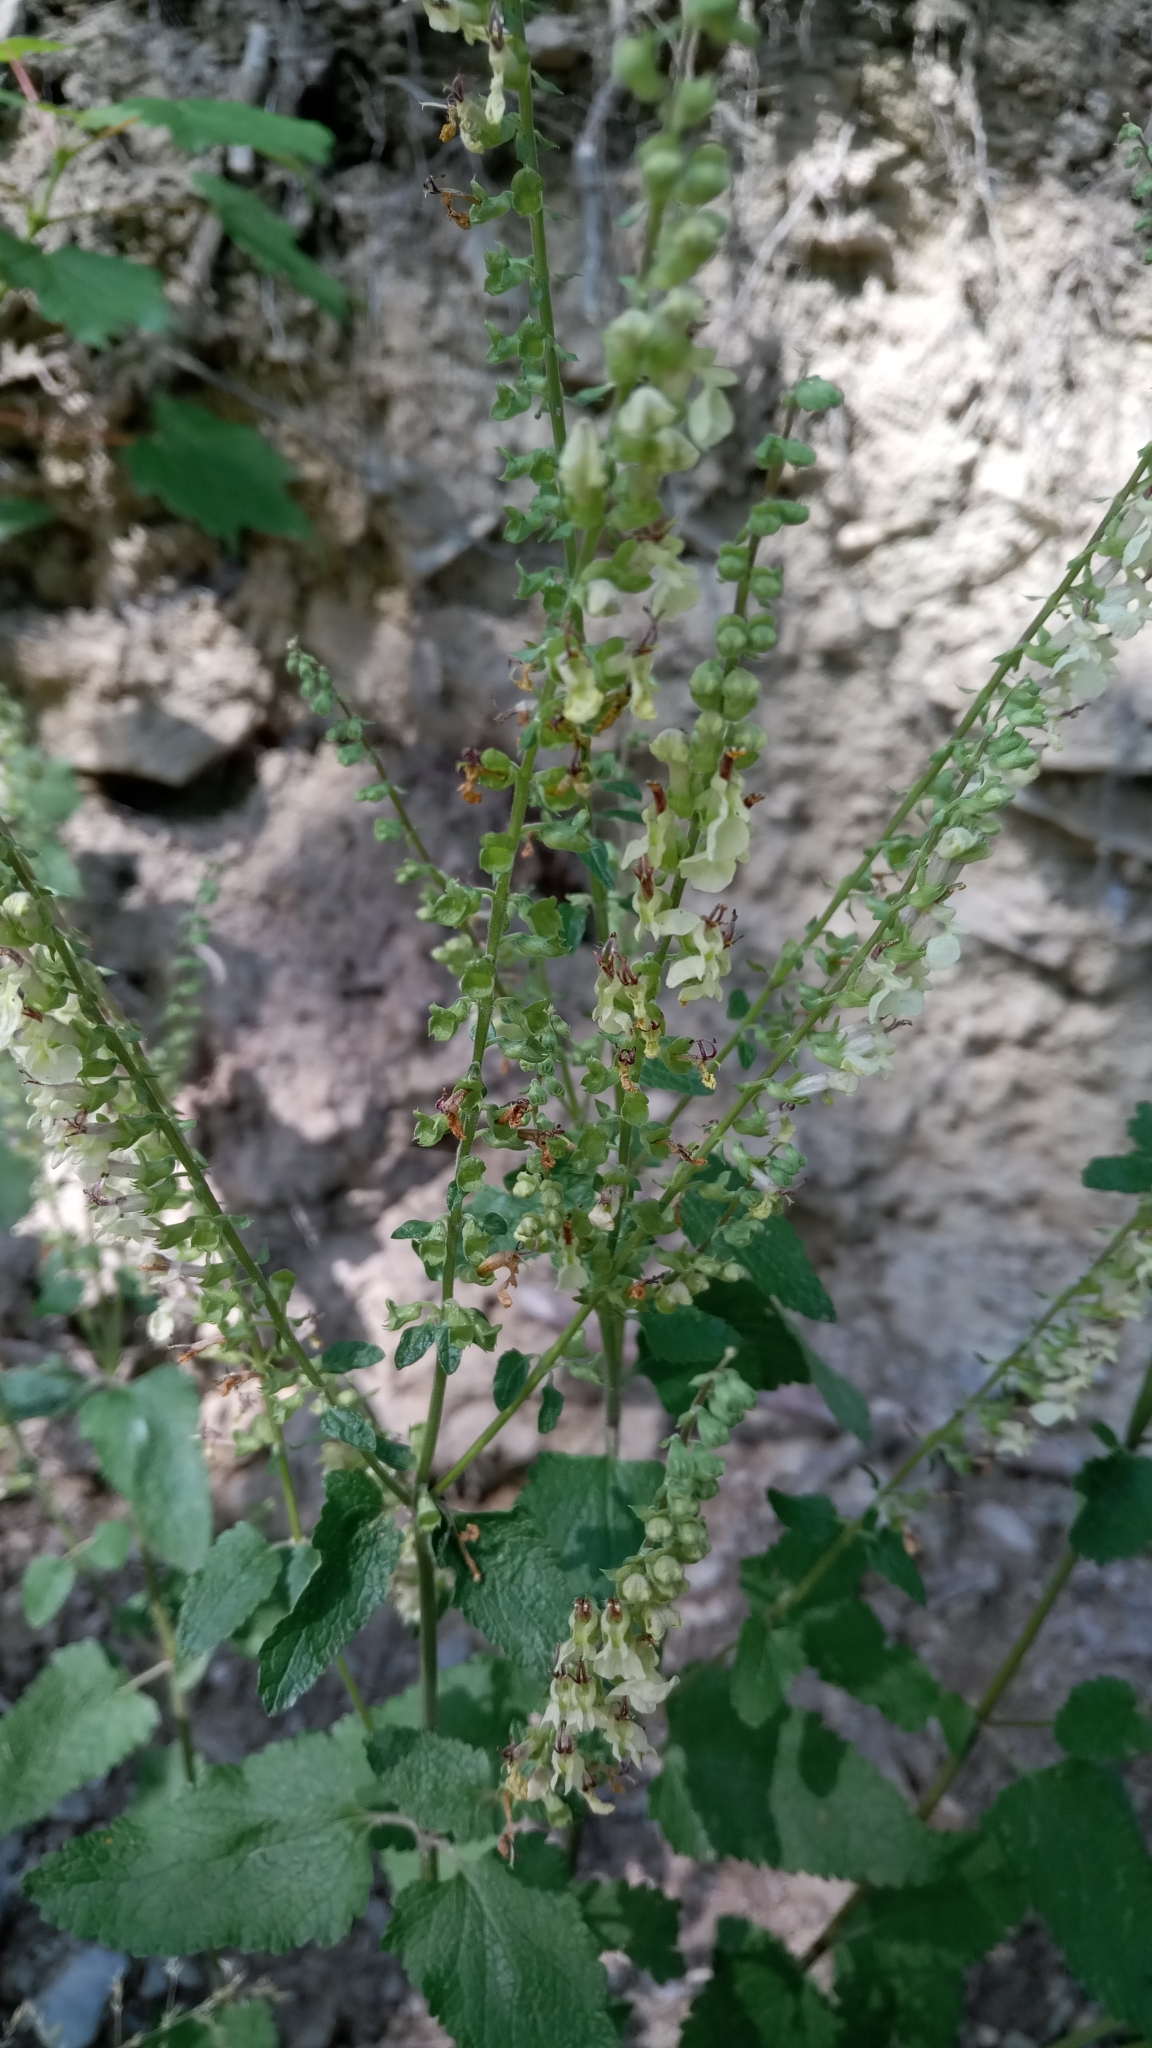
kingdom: Plantae
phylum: Tracheophyta
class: Magnoliopsida
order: Lamiales
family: Lamiaceae
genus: Teucrium
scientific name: Teucrium scorodonia
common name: Woodland germander
